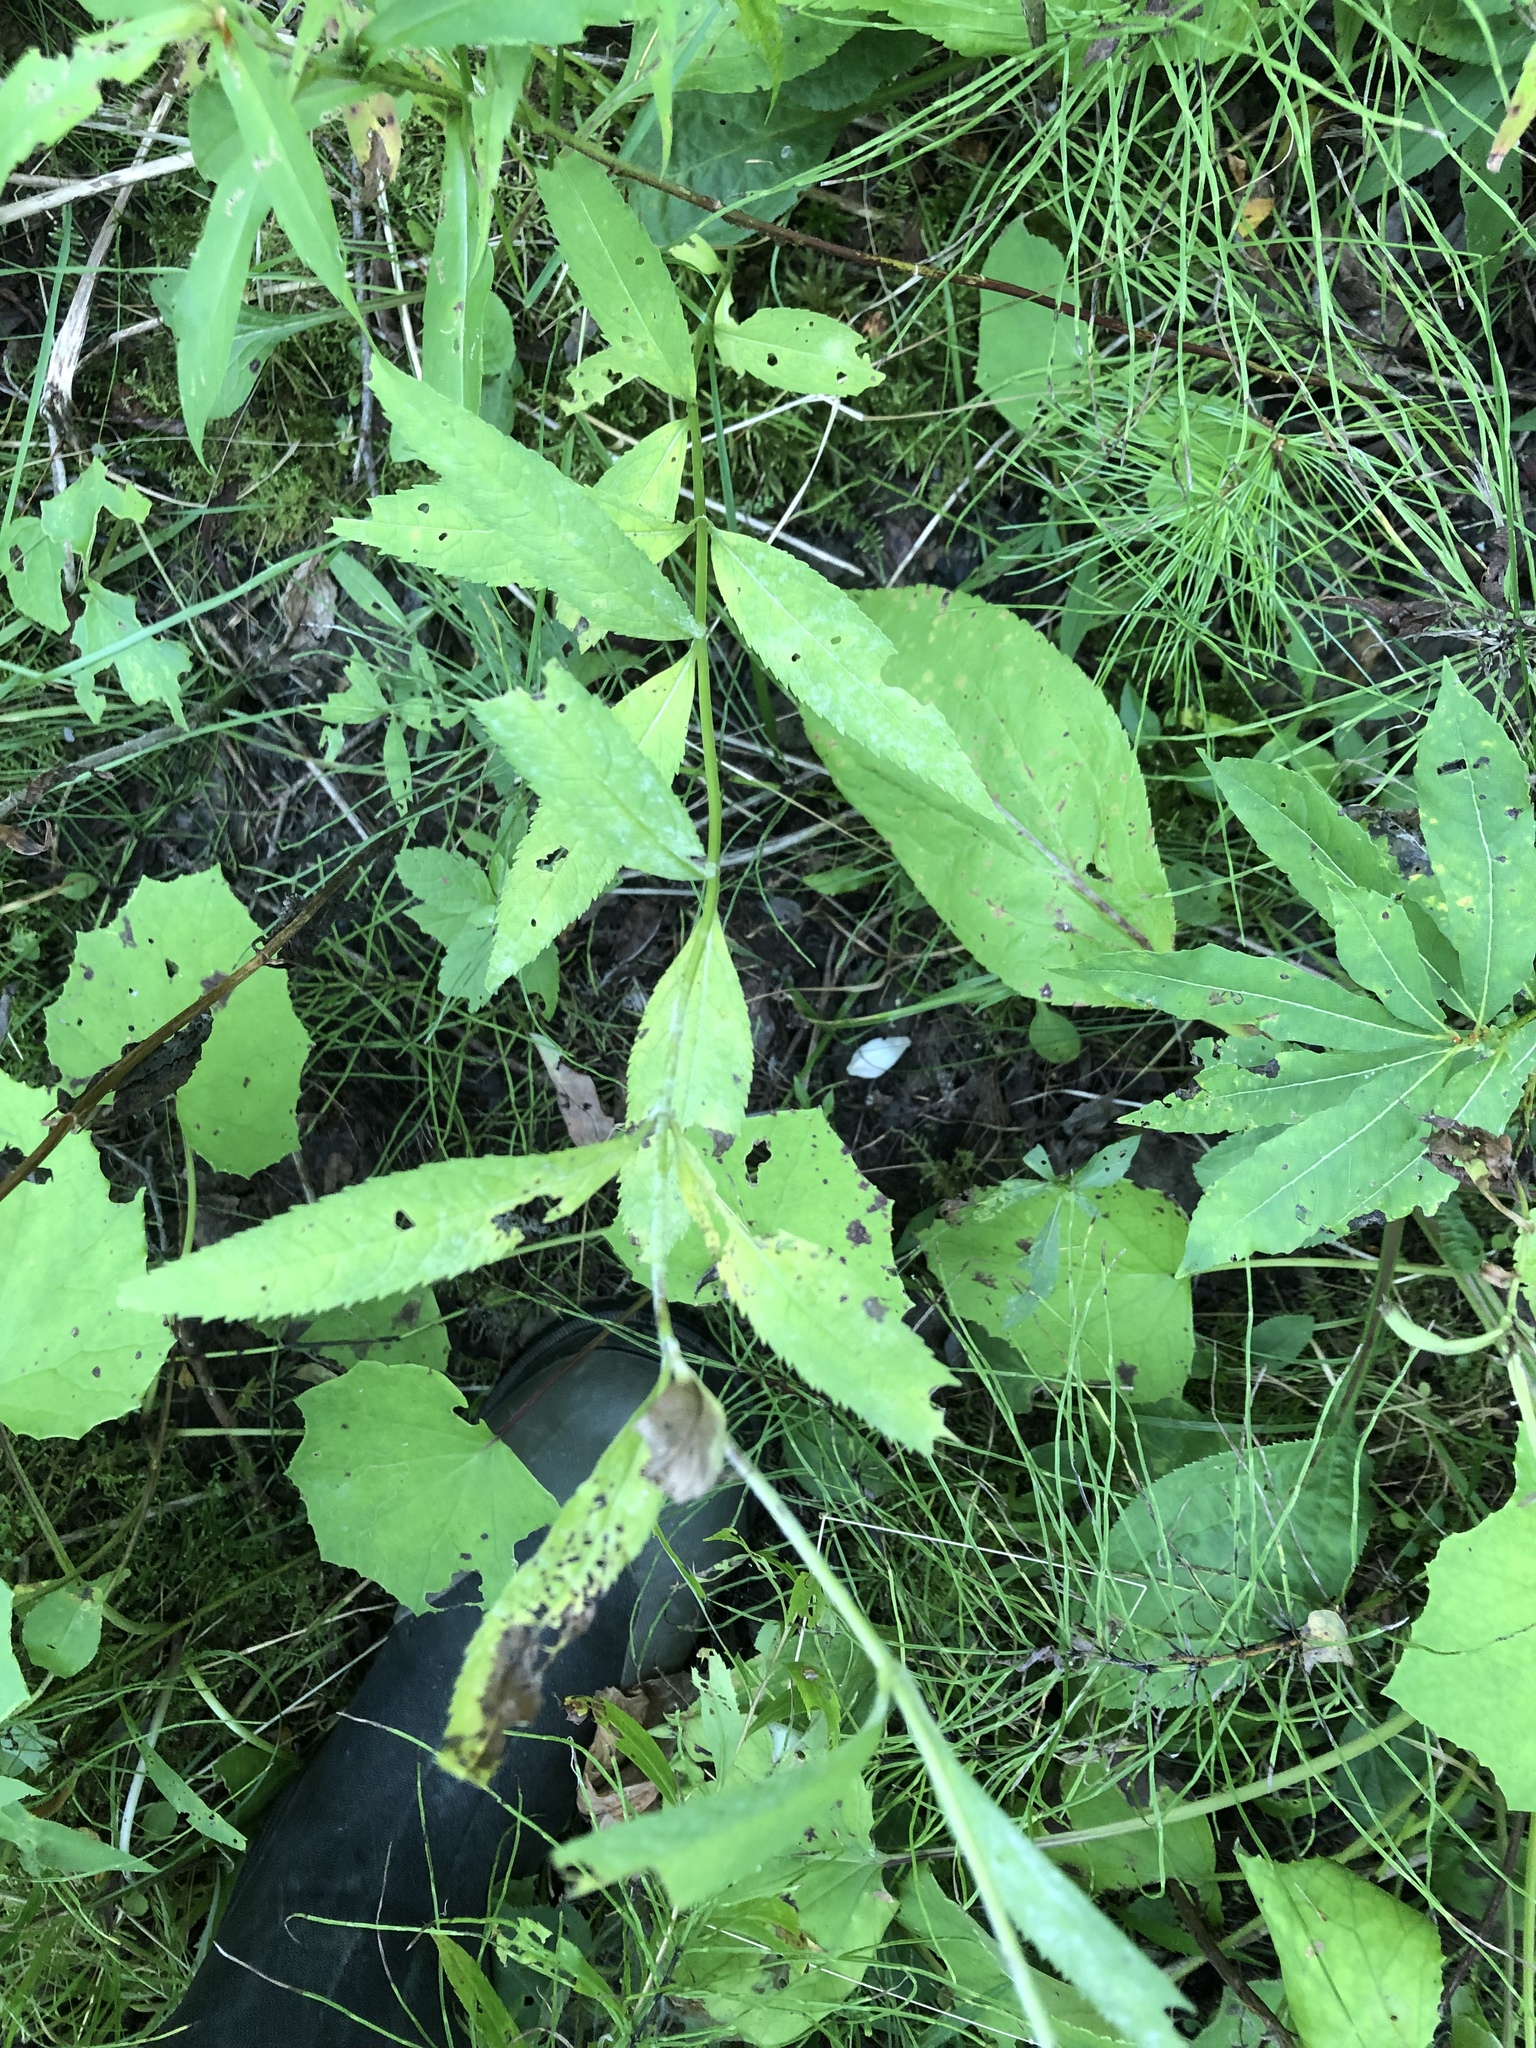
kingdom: Plantae
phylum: Tracheophyta
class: Magnoliopsida
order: Lamiales
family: Plantaginaceae
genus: Chelone
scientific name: Chelone glabra
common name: Snakehead
